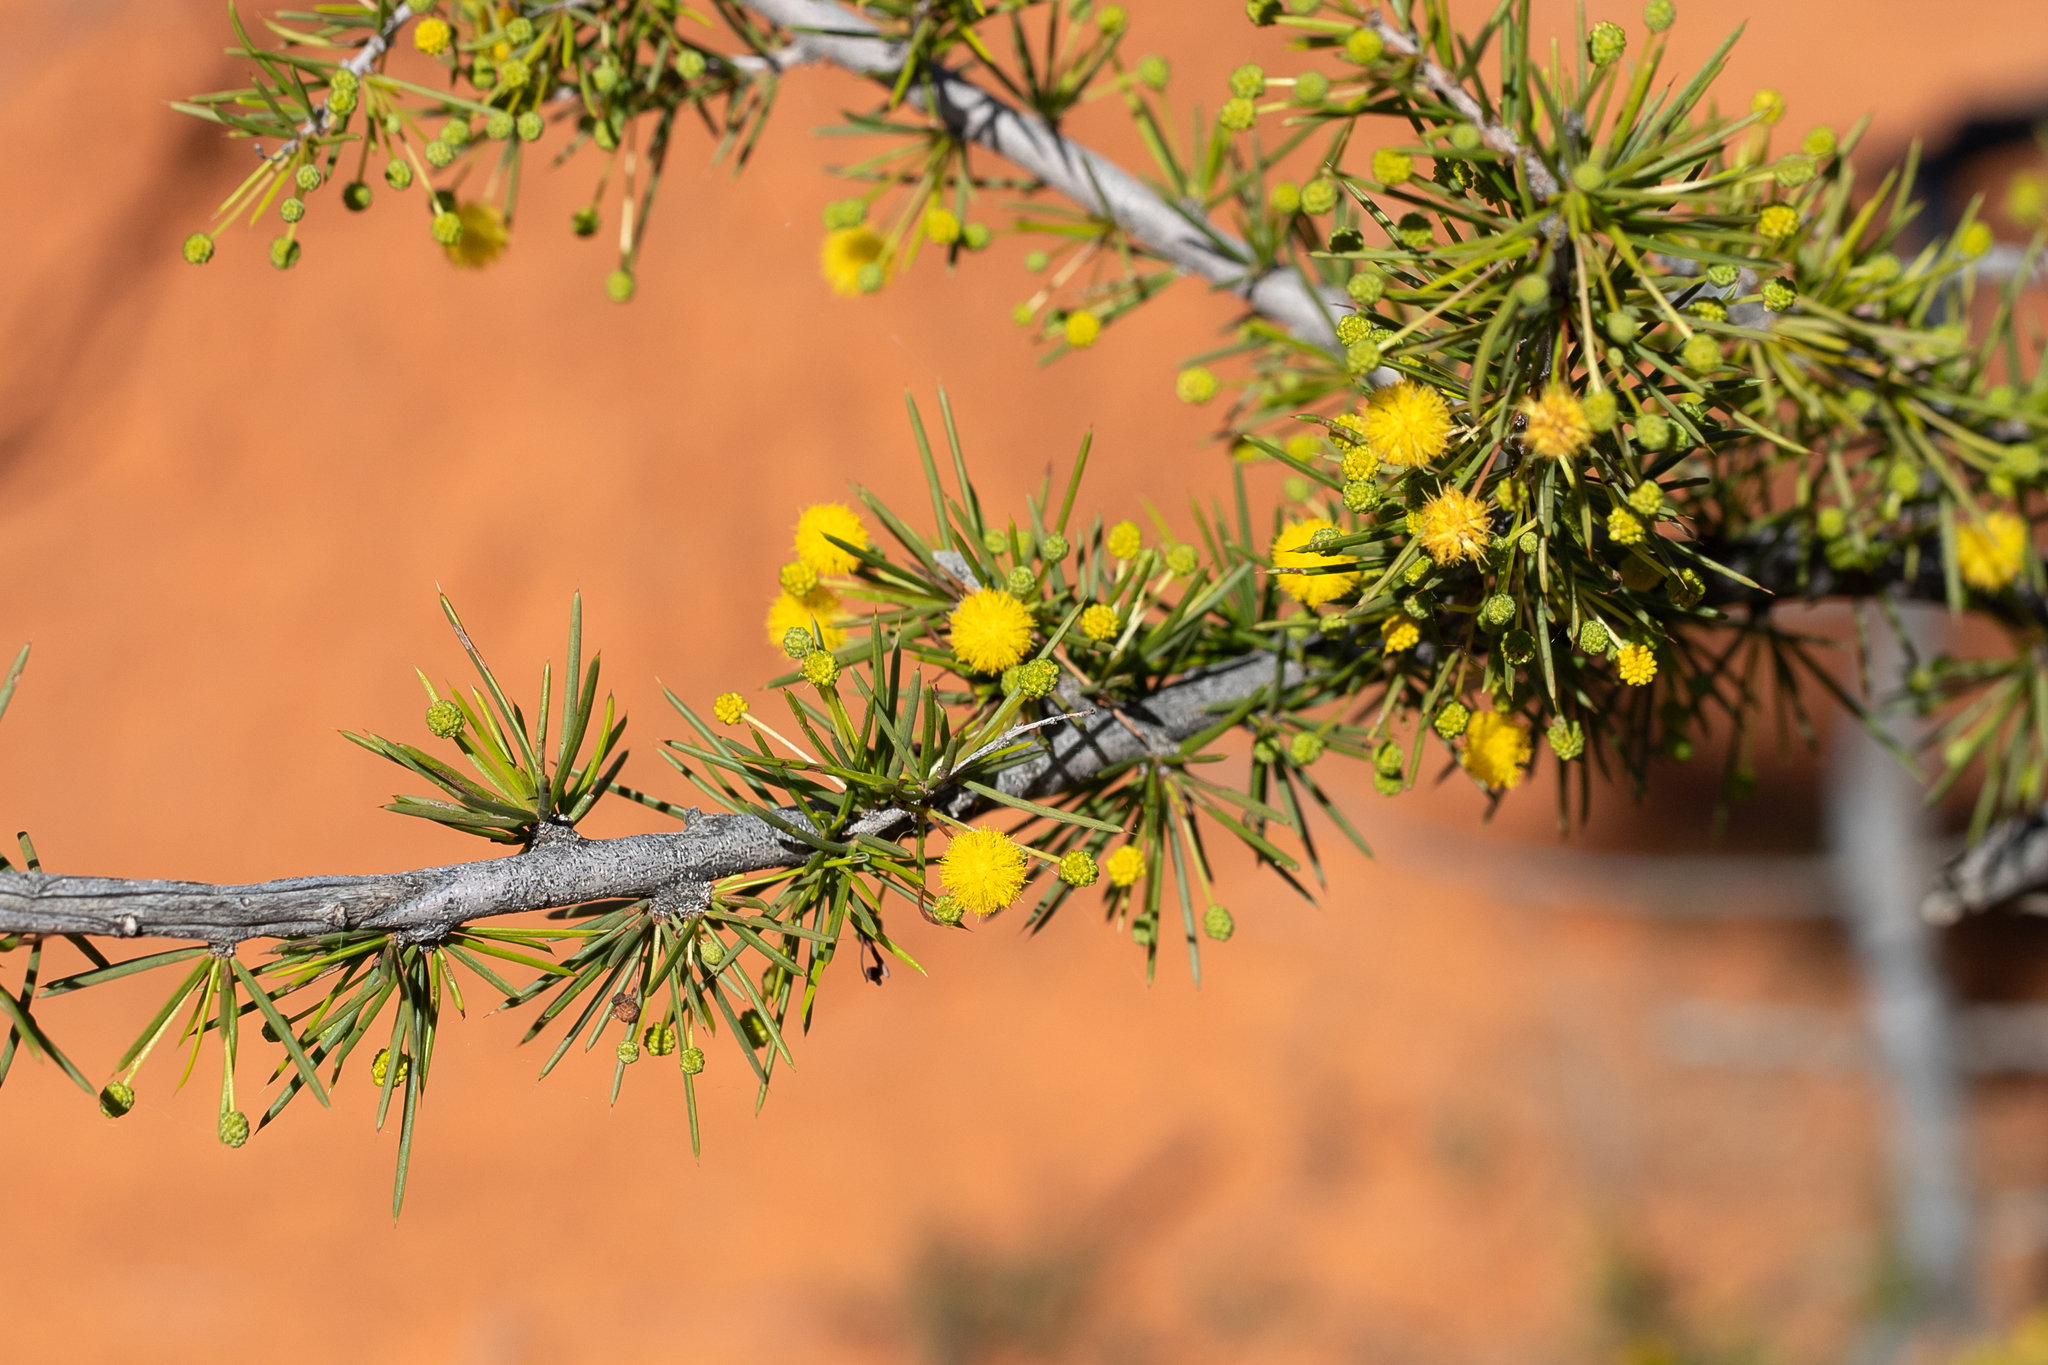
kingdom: Plantae
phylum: Tracheophyta
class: Magnoliopsida
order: Fabales
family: Fabaceae
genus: Acacia
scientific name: Acacia tetragonophylla
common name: Dead finish
